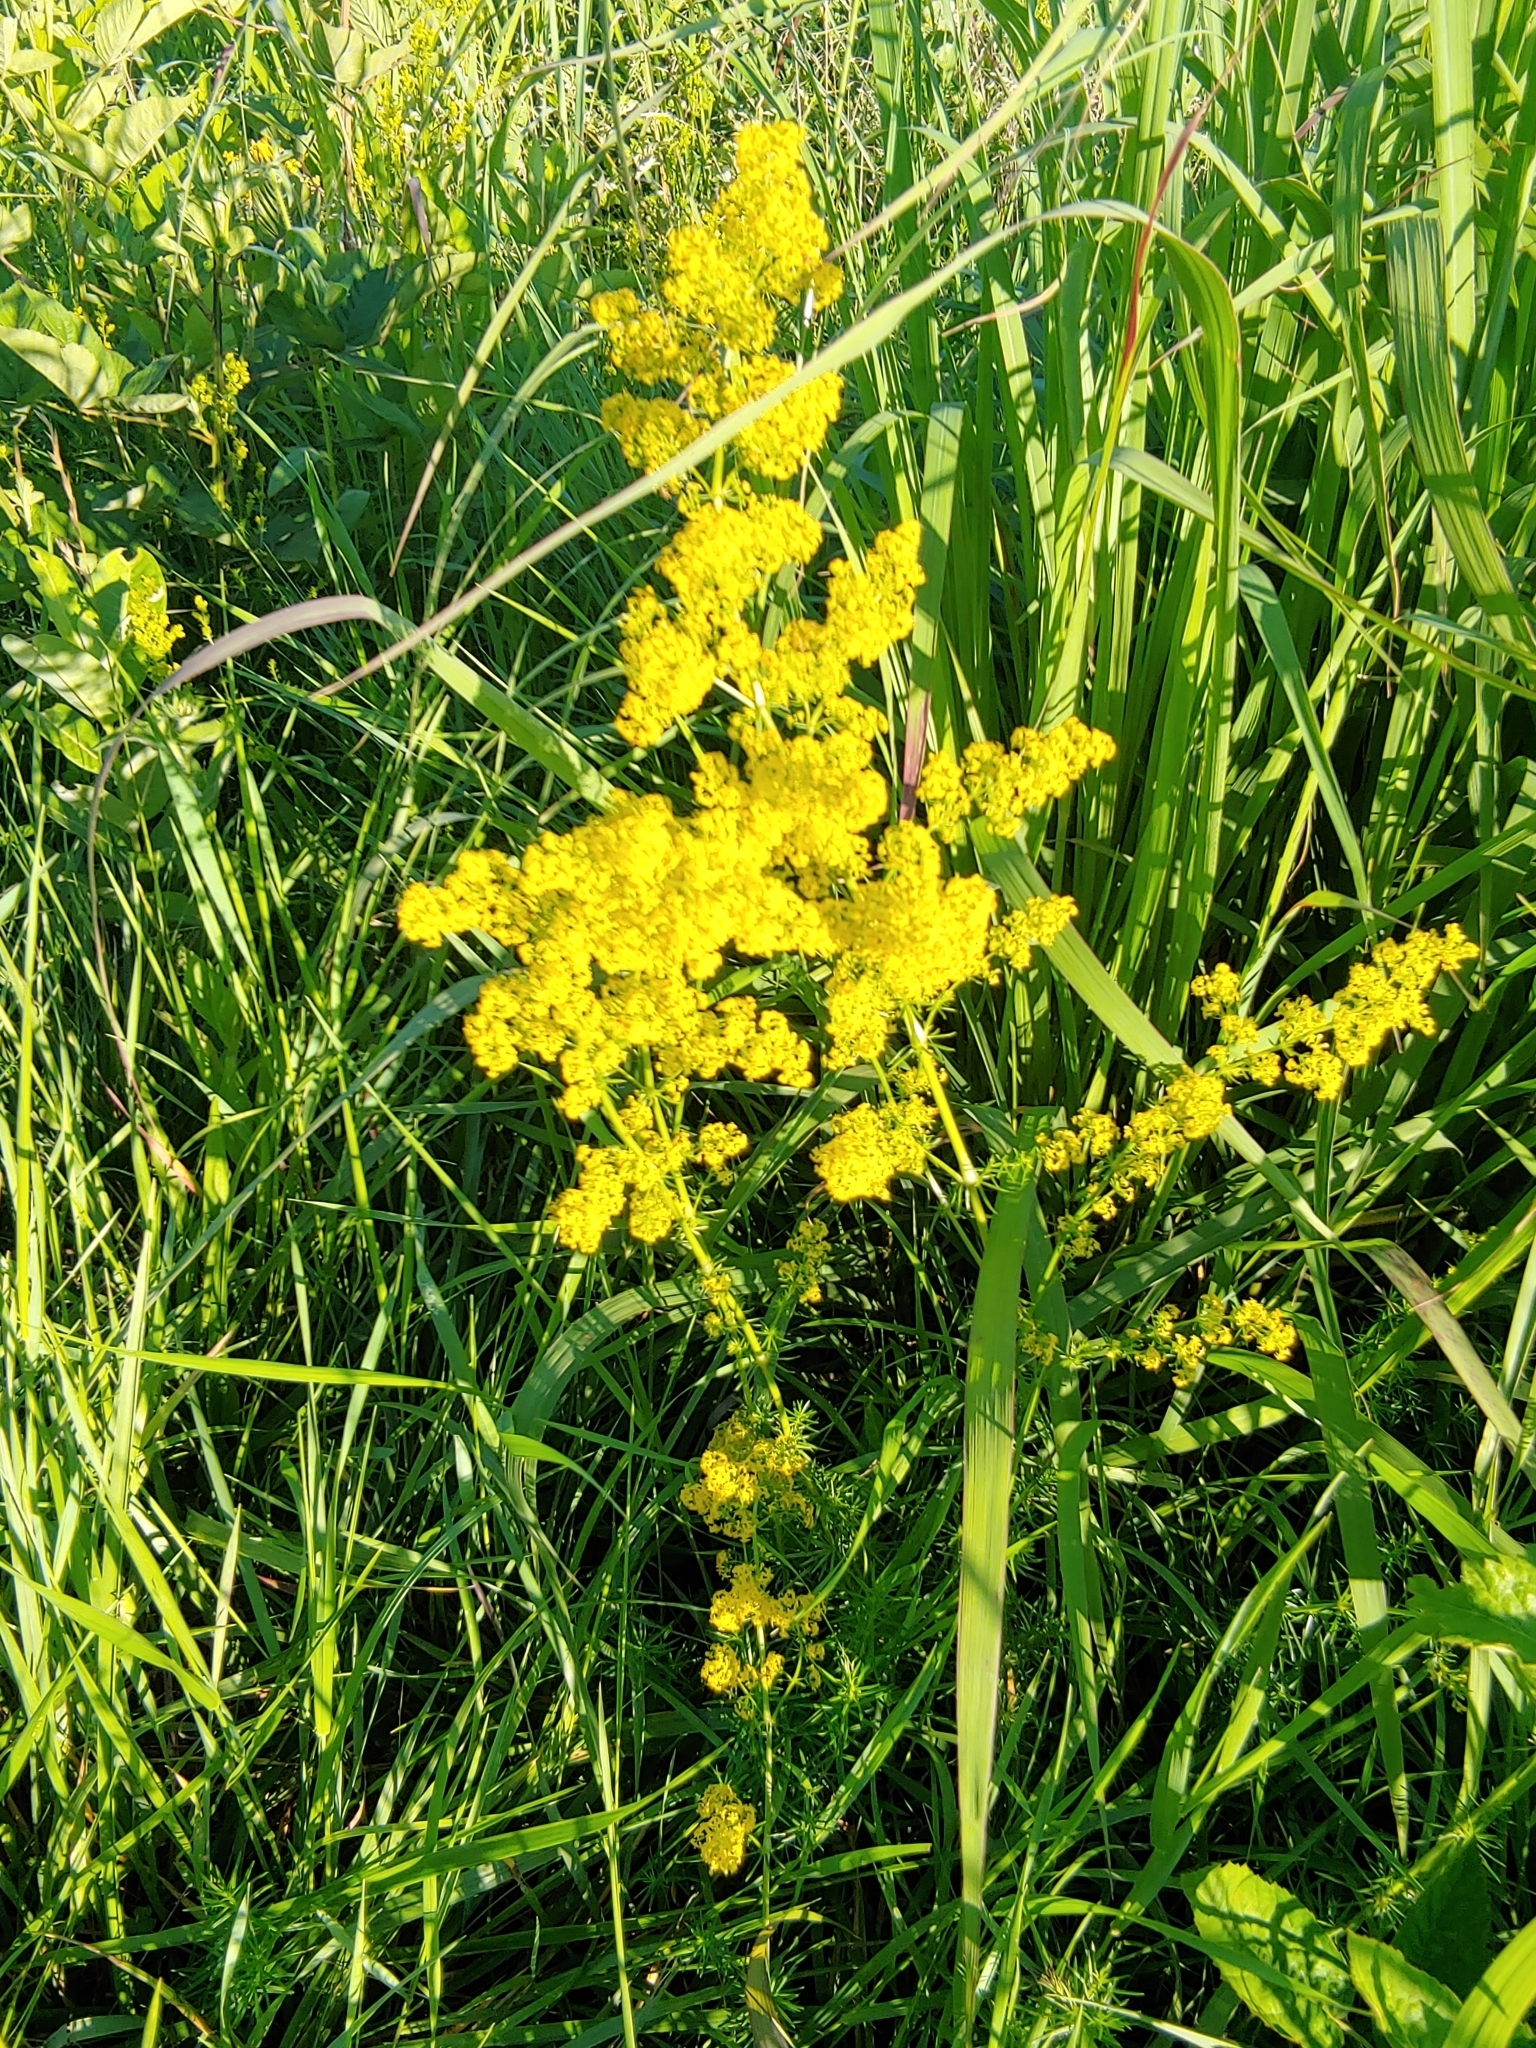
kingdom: Plantae
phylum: Tracheophyta
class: Magnoliopsida
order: Gentianales
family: Rubiaceae
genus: Galium
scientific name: Galium verum
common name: Lady's bedstraw
